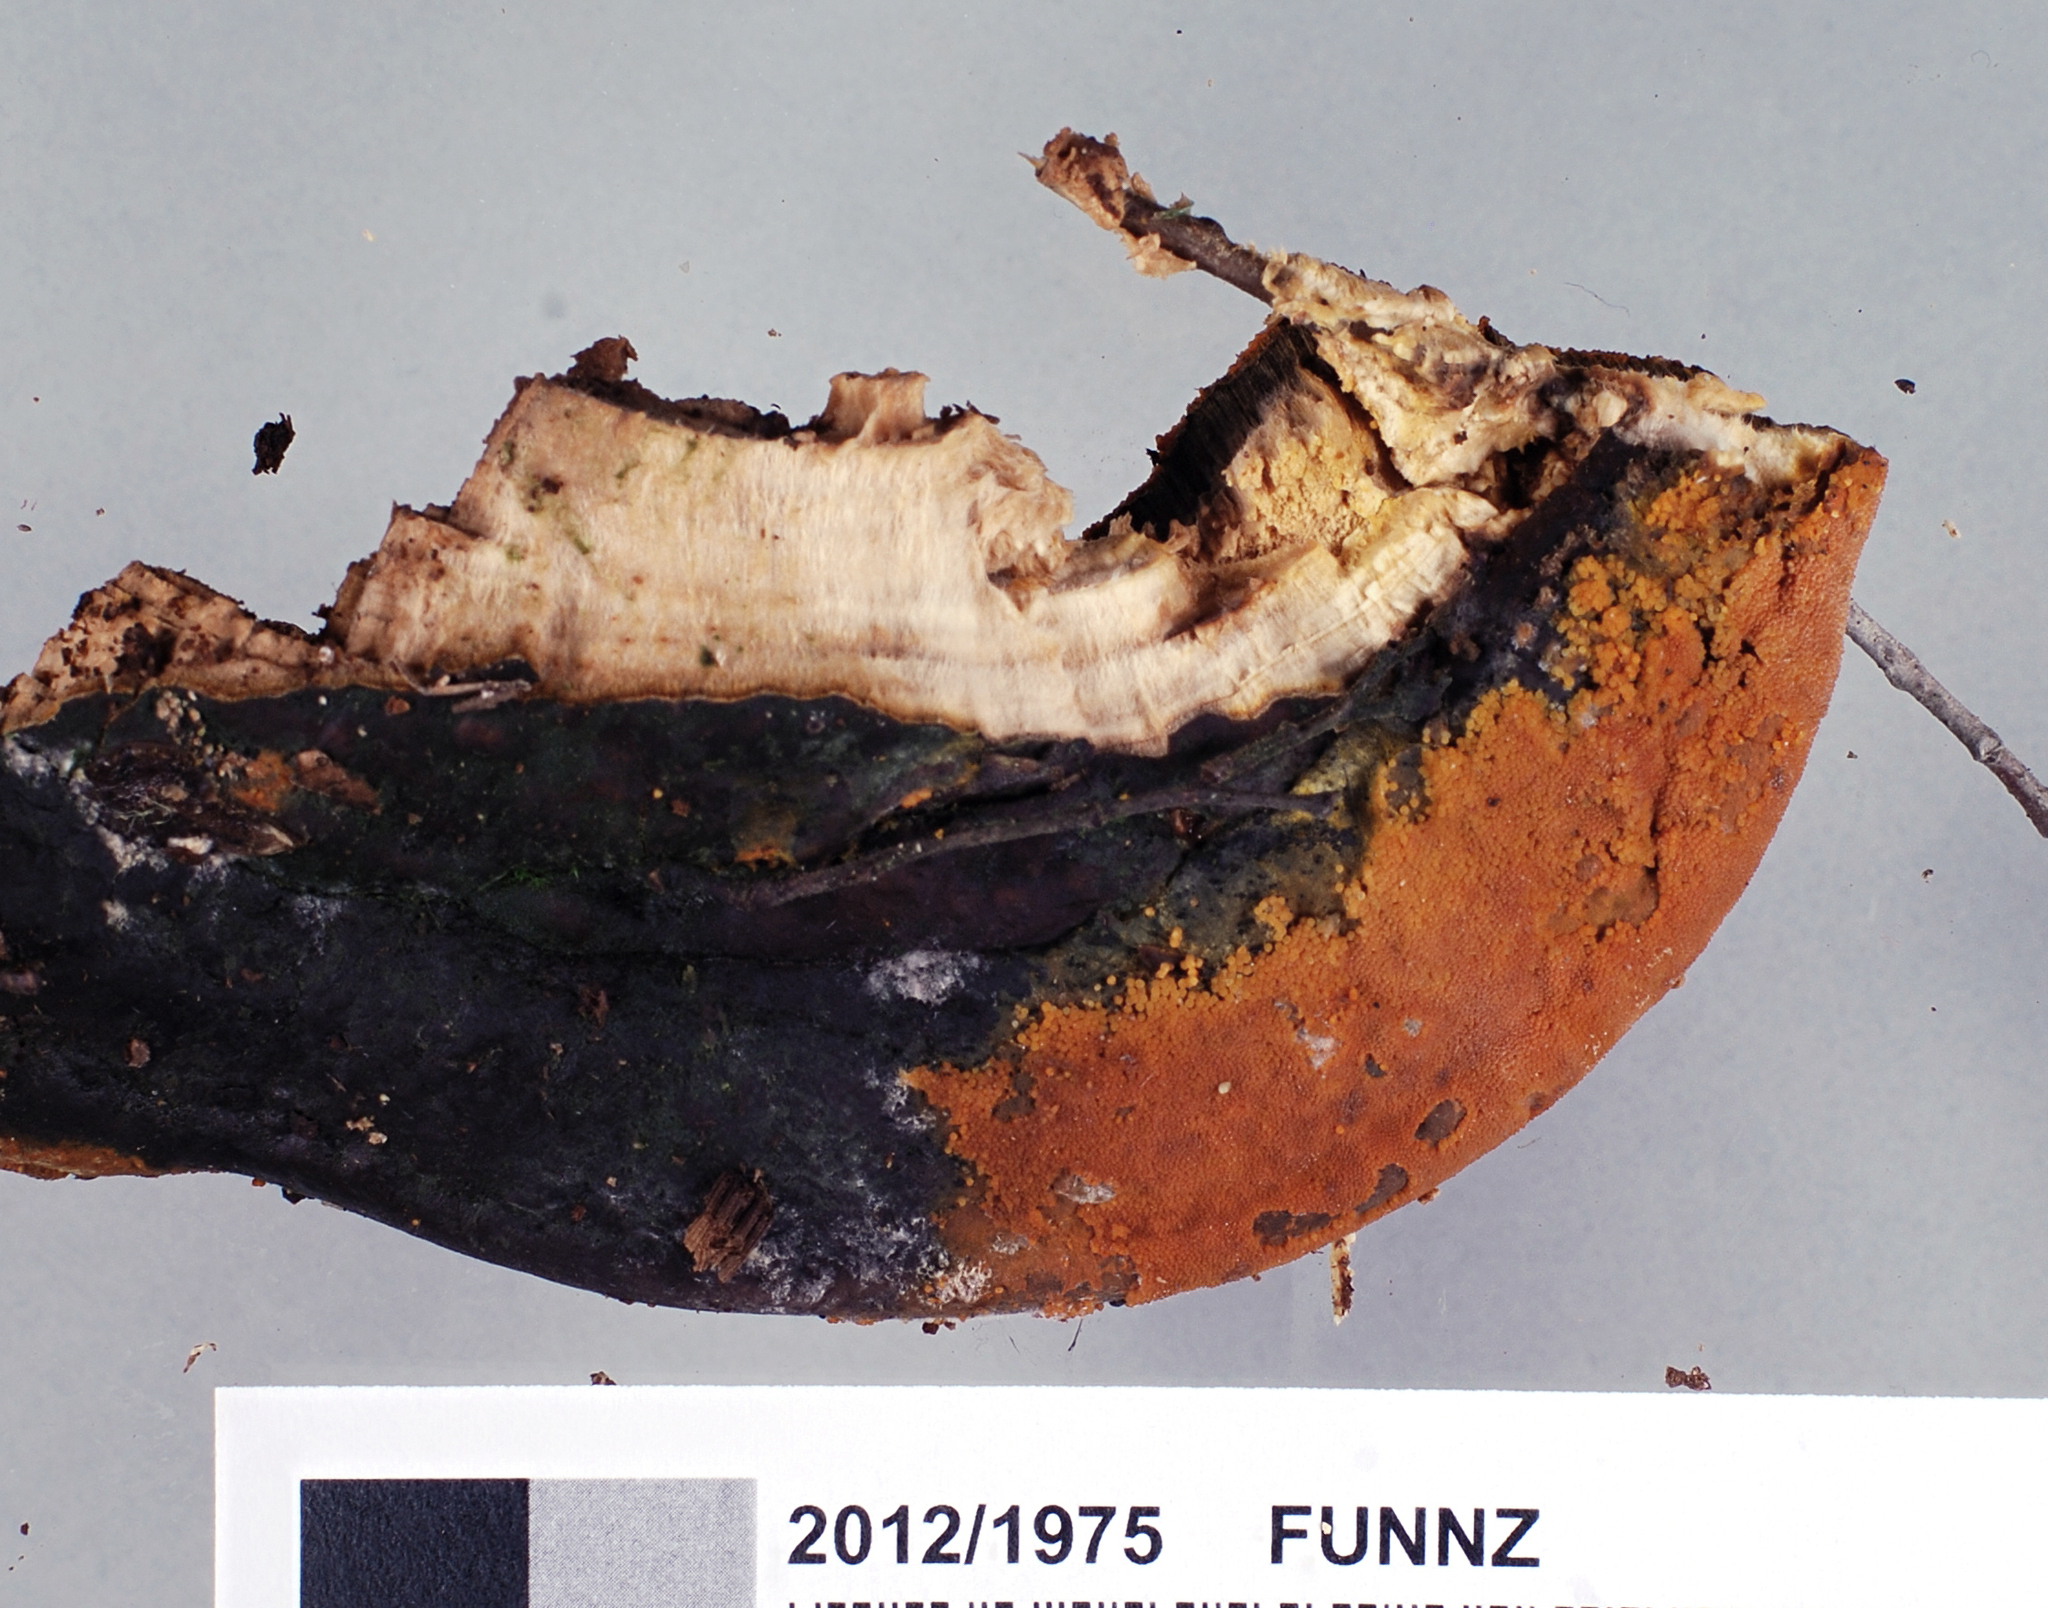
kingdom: Fungi
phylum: Ascomycota
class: Sordariomycetes
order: Hypocreales
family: Hypocreaceae
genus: Hypomyces
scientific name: Hypomyces aurantius
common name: Orange polypore mould
